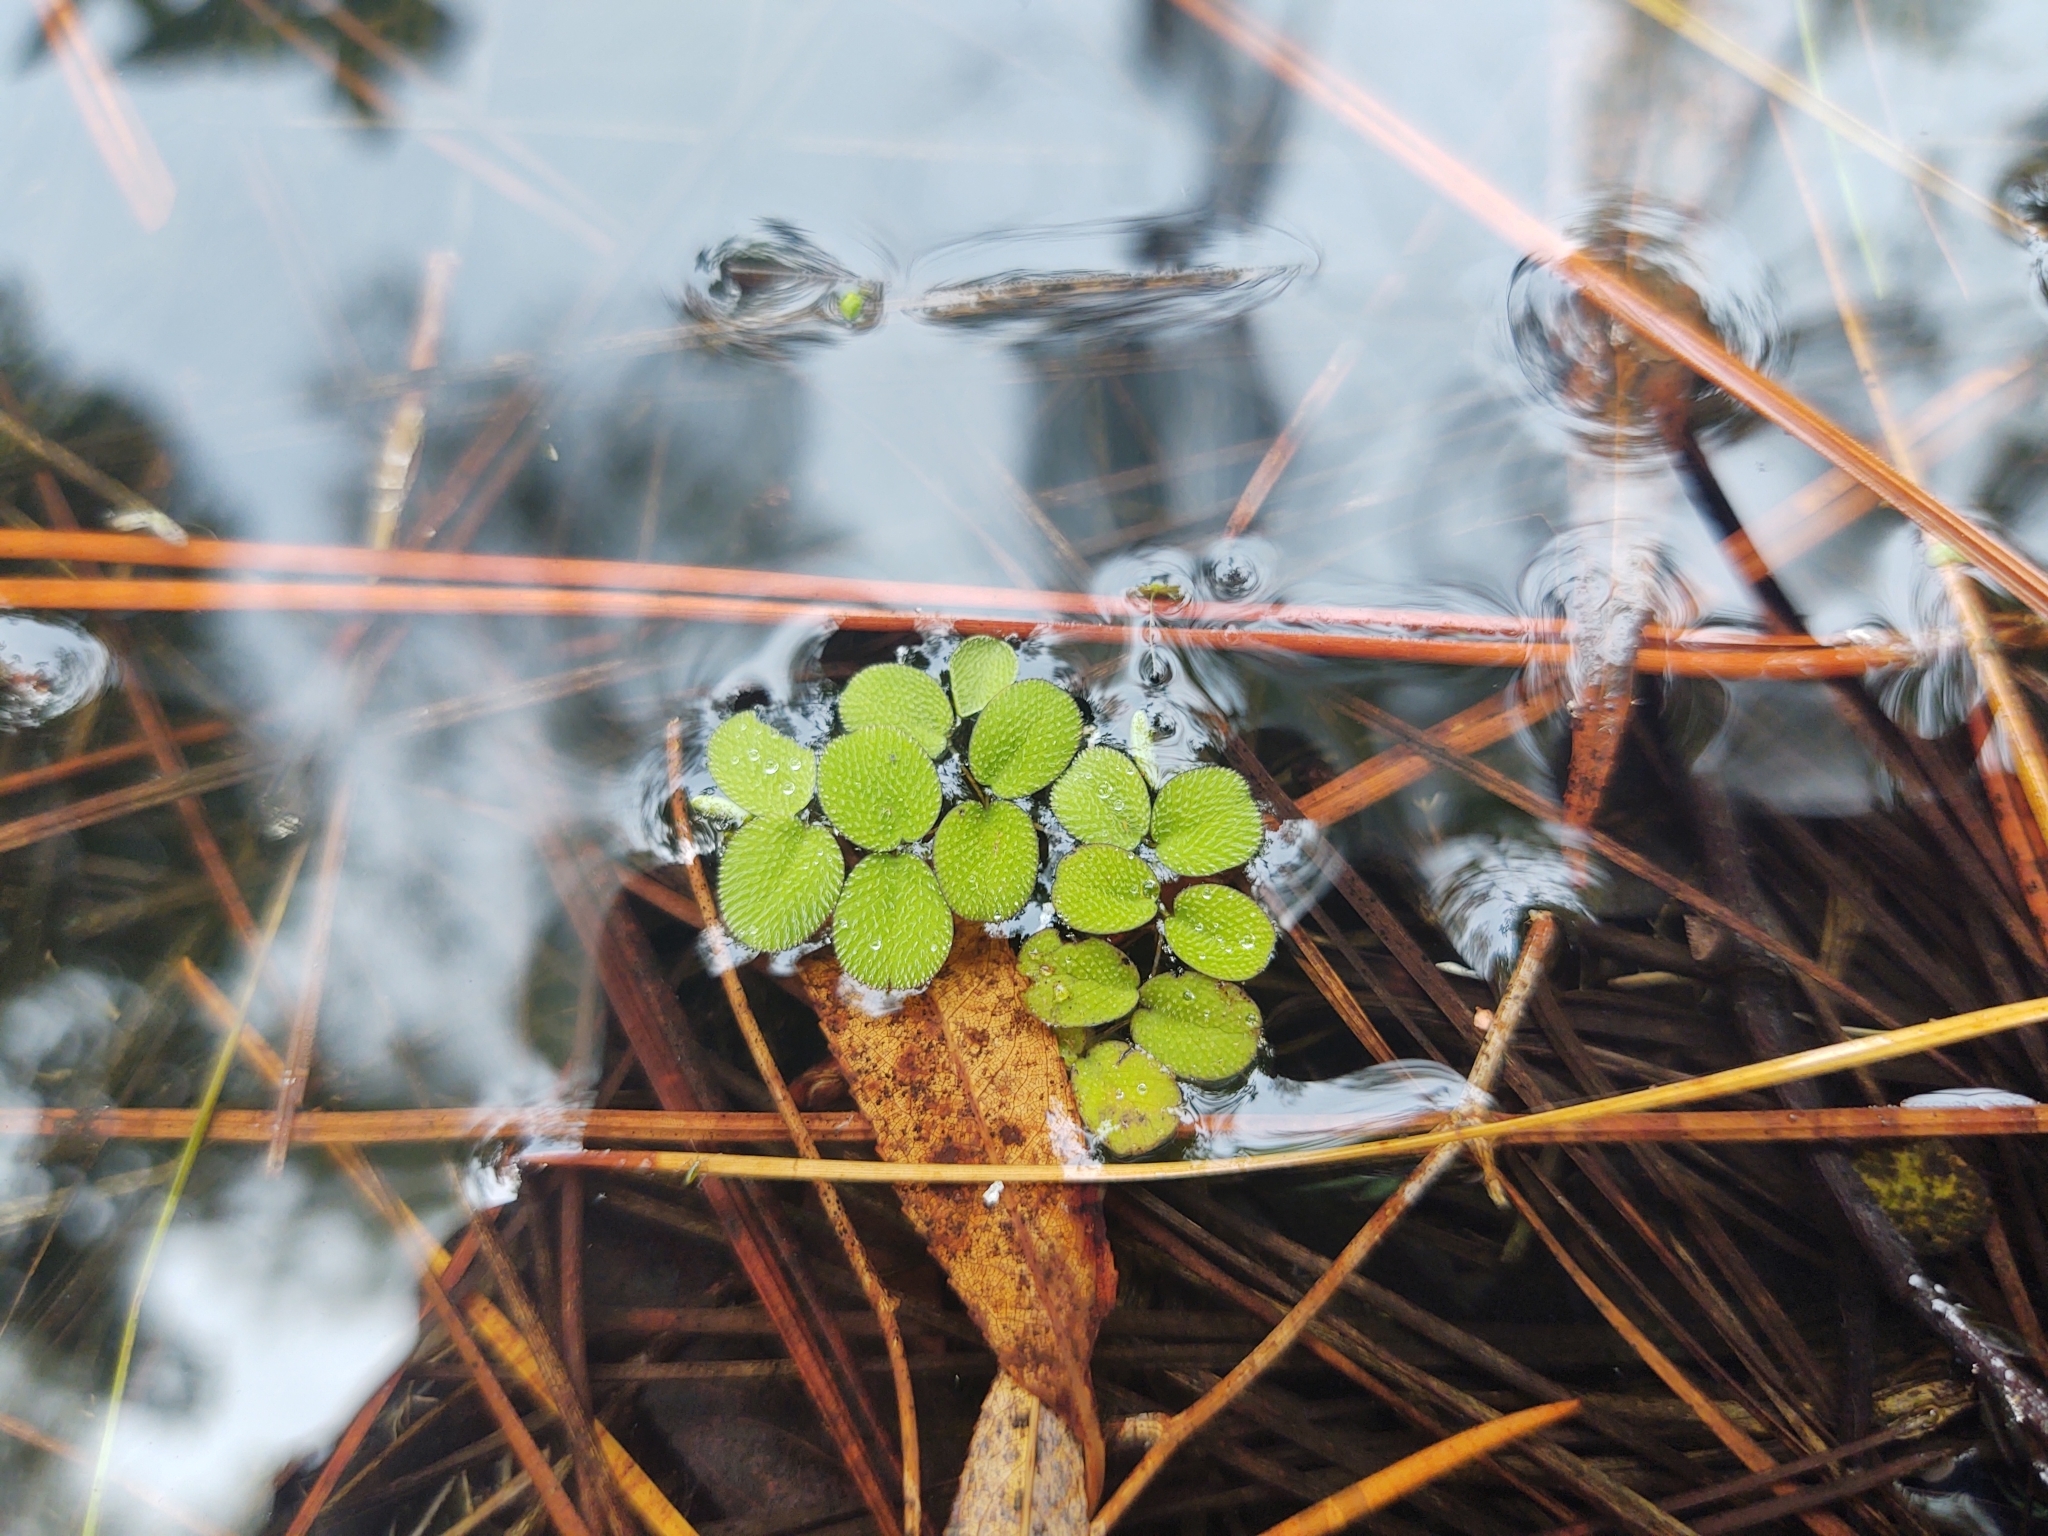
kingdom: Plantae
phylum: Tracheophyta
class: Polypodiopsida
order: Salviniales
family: Salviniaceae
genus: Salvinia
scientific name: Salvinia minima
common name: Water spangles
